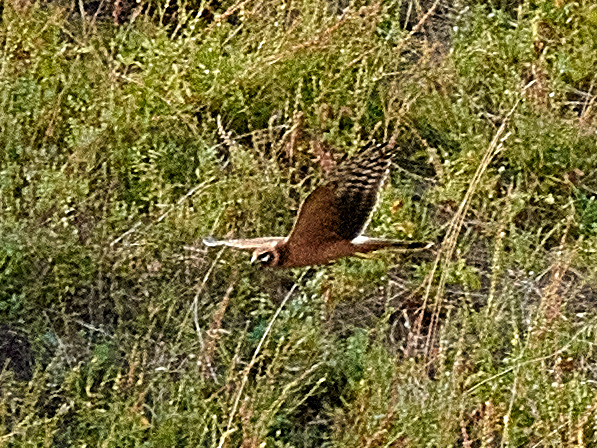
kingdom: Animalia
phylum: Chordata
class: Aves
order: Accipitriformes
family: Accipitridae
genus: Circus
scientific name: Circus macrourus
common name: Pallid harrier
